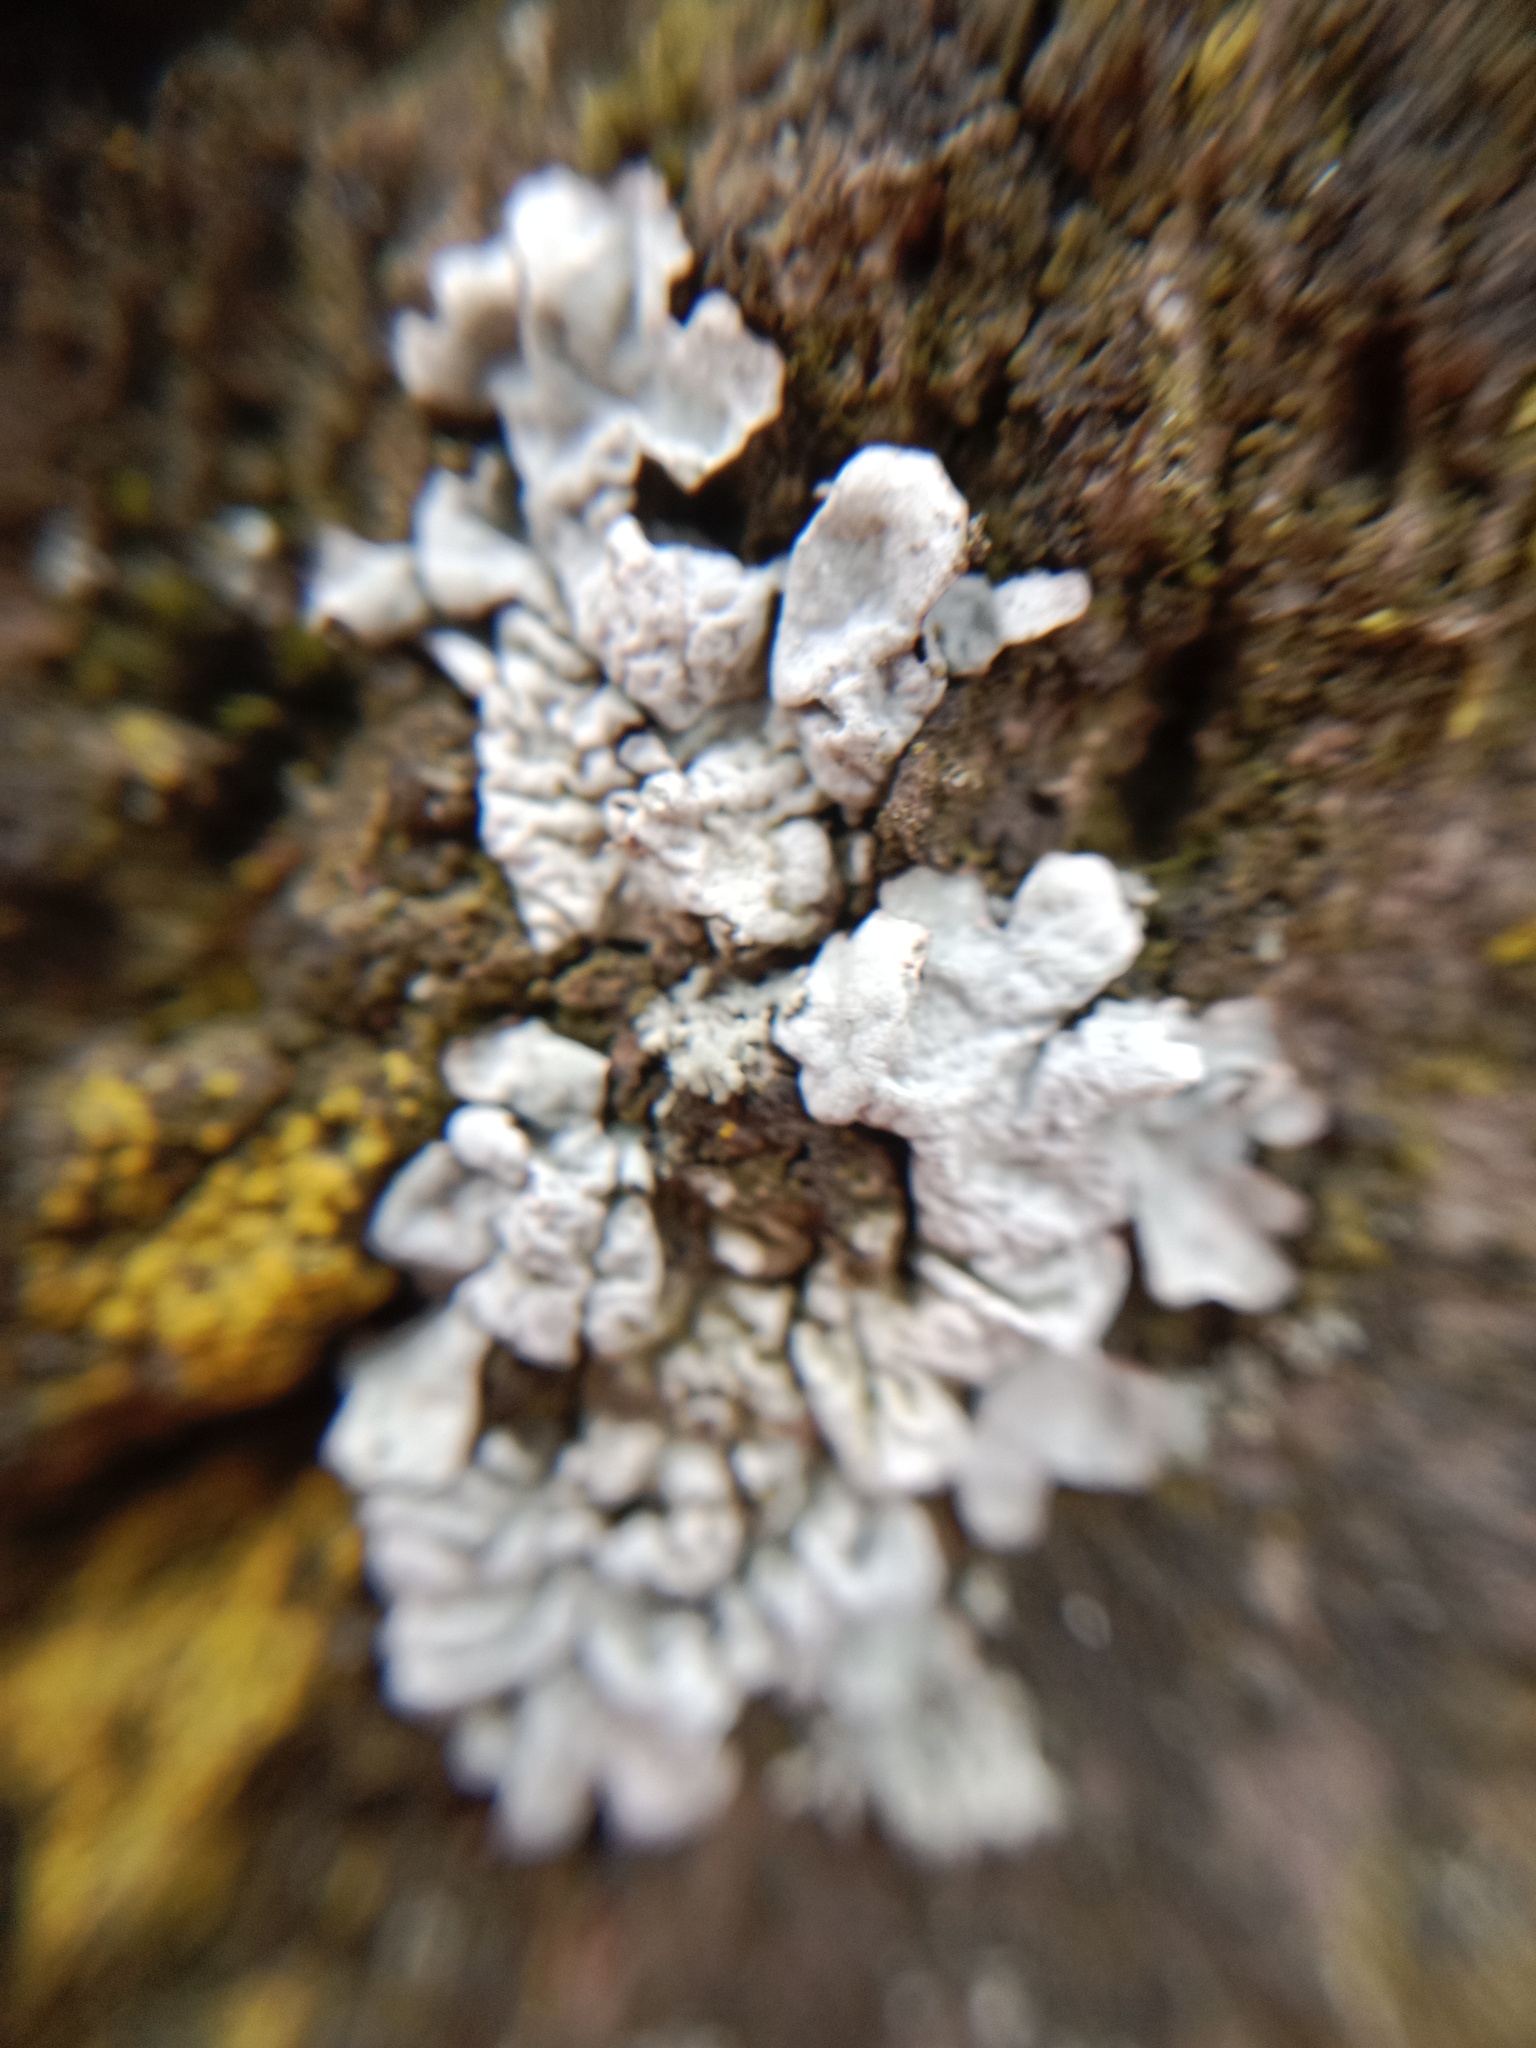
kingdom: Fungi
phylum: Ascomycota
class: Lecanoromycetes
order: Lecanorales
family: Parmeliaceae
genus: Parmelia
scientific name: Parmelia sulcata
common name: Netted shield lichen
